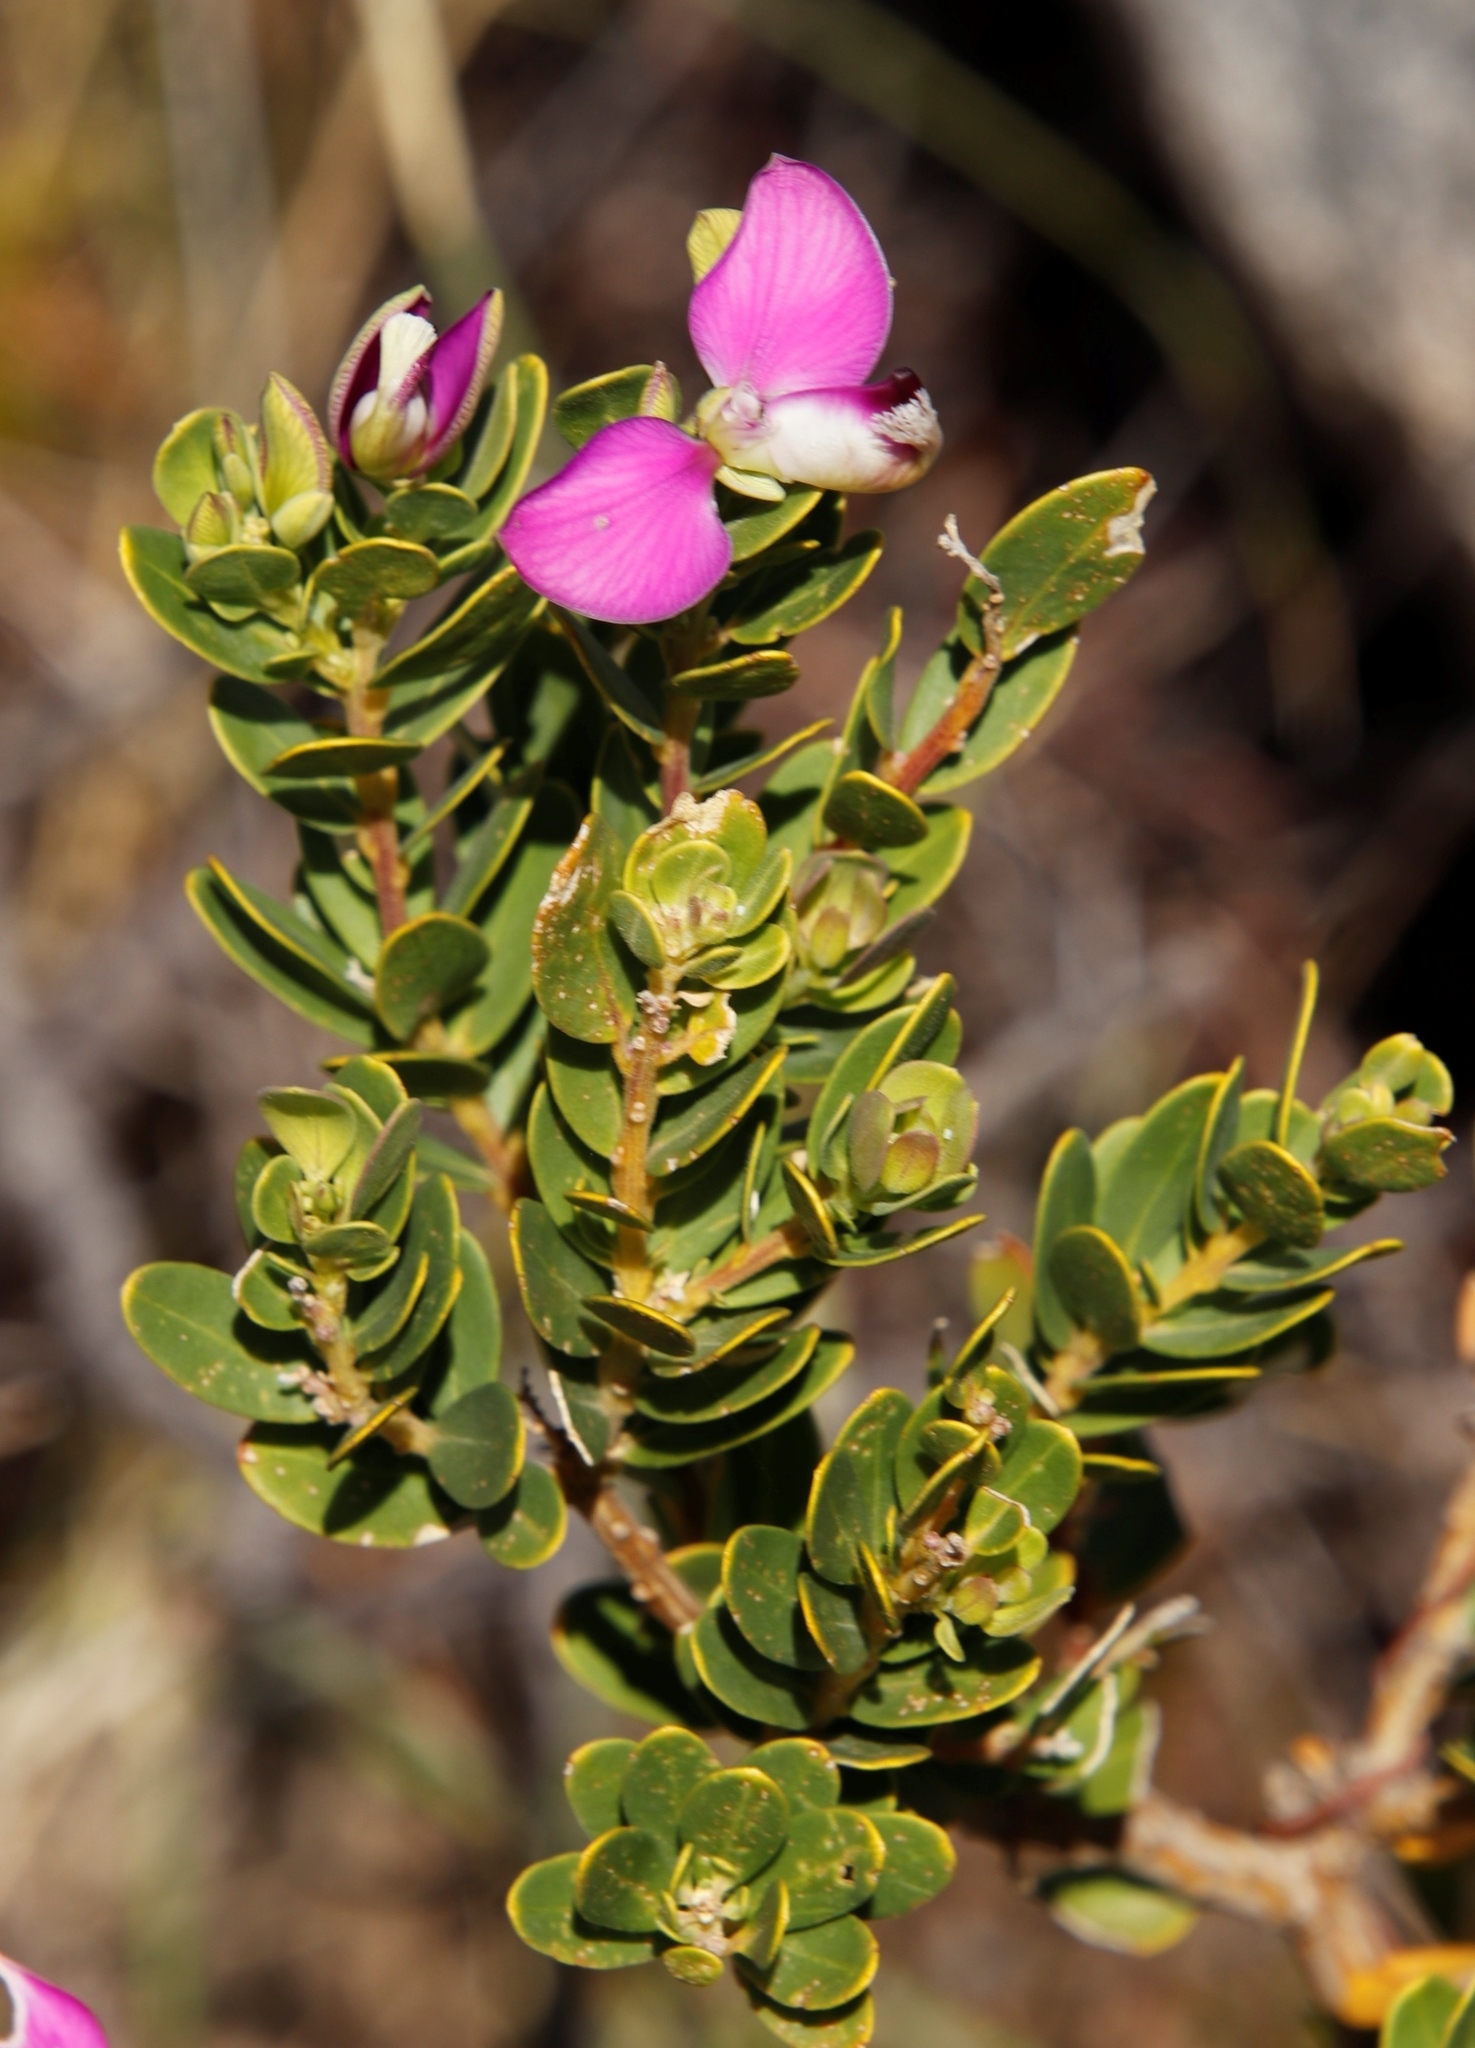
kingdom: Plantae
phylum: Tracheophyta
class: Magnoliopsida
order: Fabales
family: Polygalaceae
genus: Polygala
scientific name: Polygala myrtifolia
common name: Myrtle-leaf milkwort
